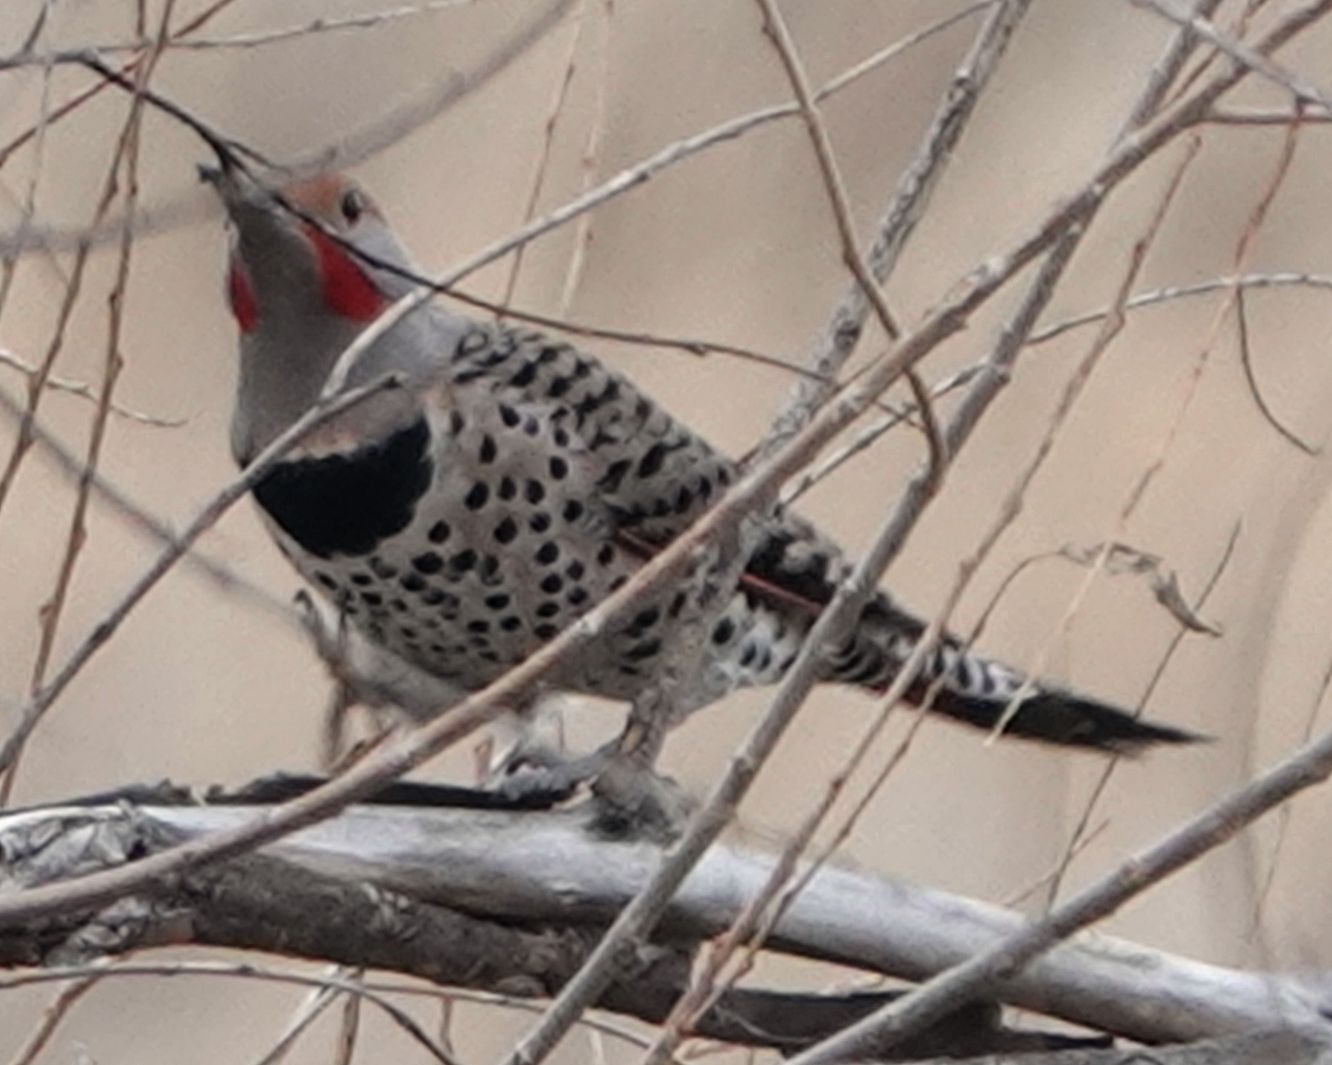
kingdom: Animalia
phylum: Chordata
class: Aves
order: Piciformes
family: Picidae
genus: Colaptes
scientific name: Colaptes auratus
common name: Northern flicker
